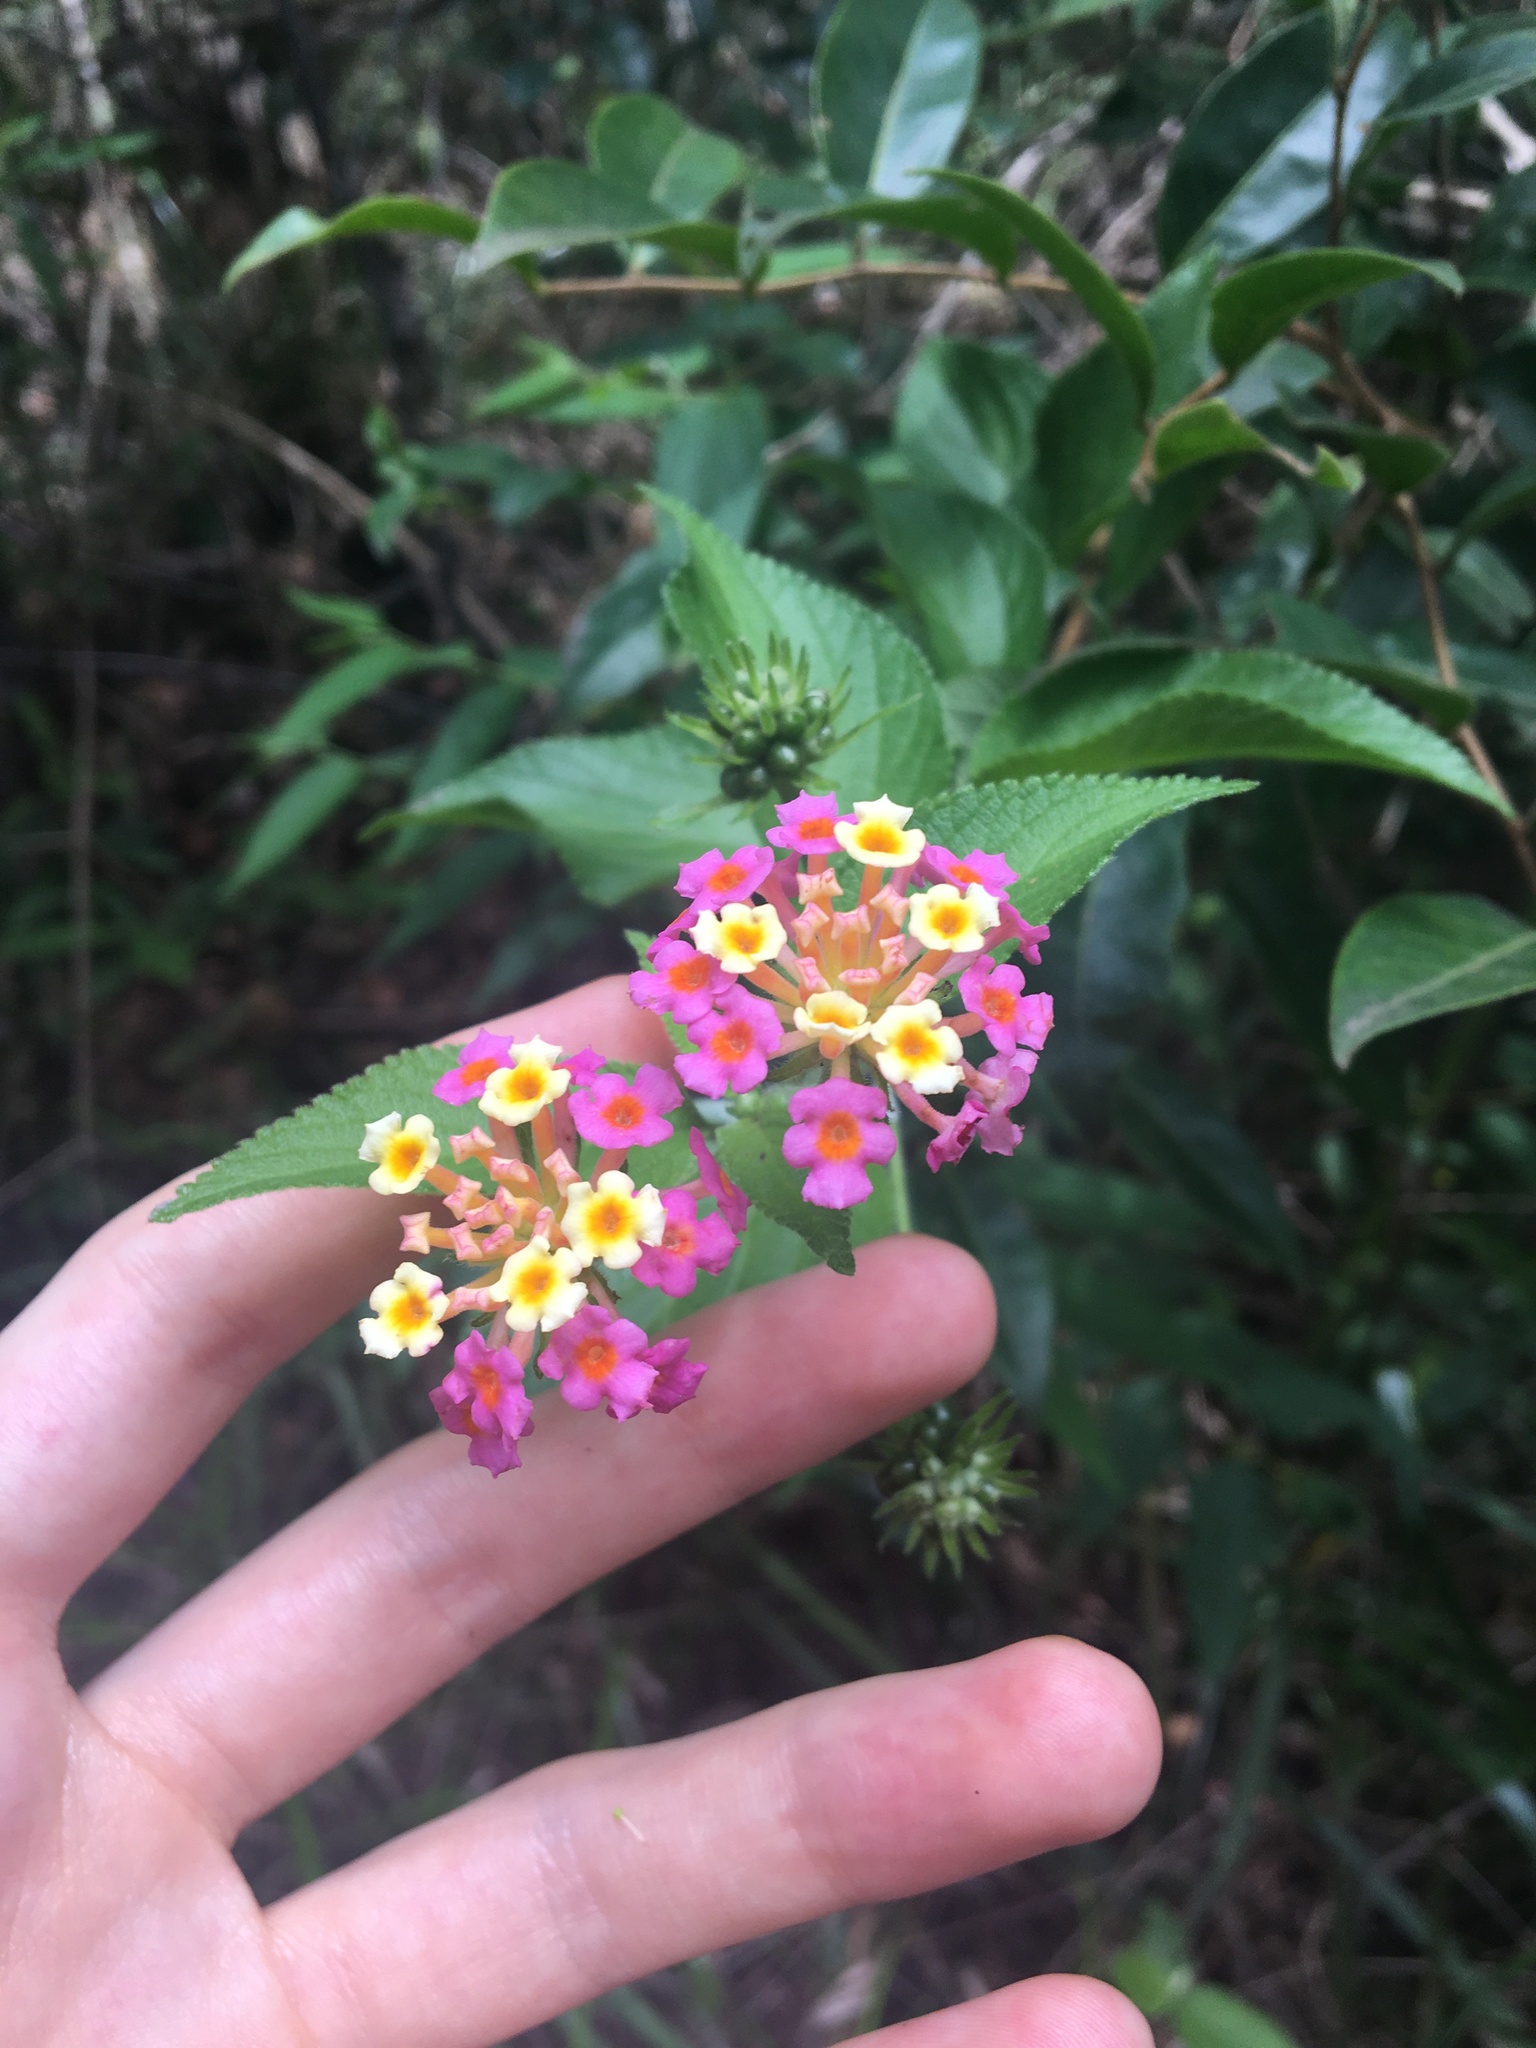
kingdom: Plantae
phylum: Tracheophyta
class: Magnoliopsida
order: Lamiales
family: Verbenaceae
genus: Lantana
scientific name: Lantana camara
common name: Lantana
